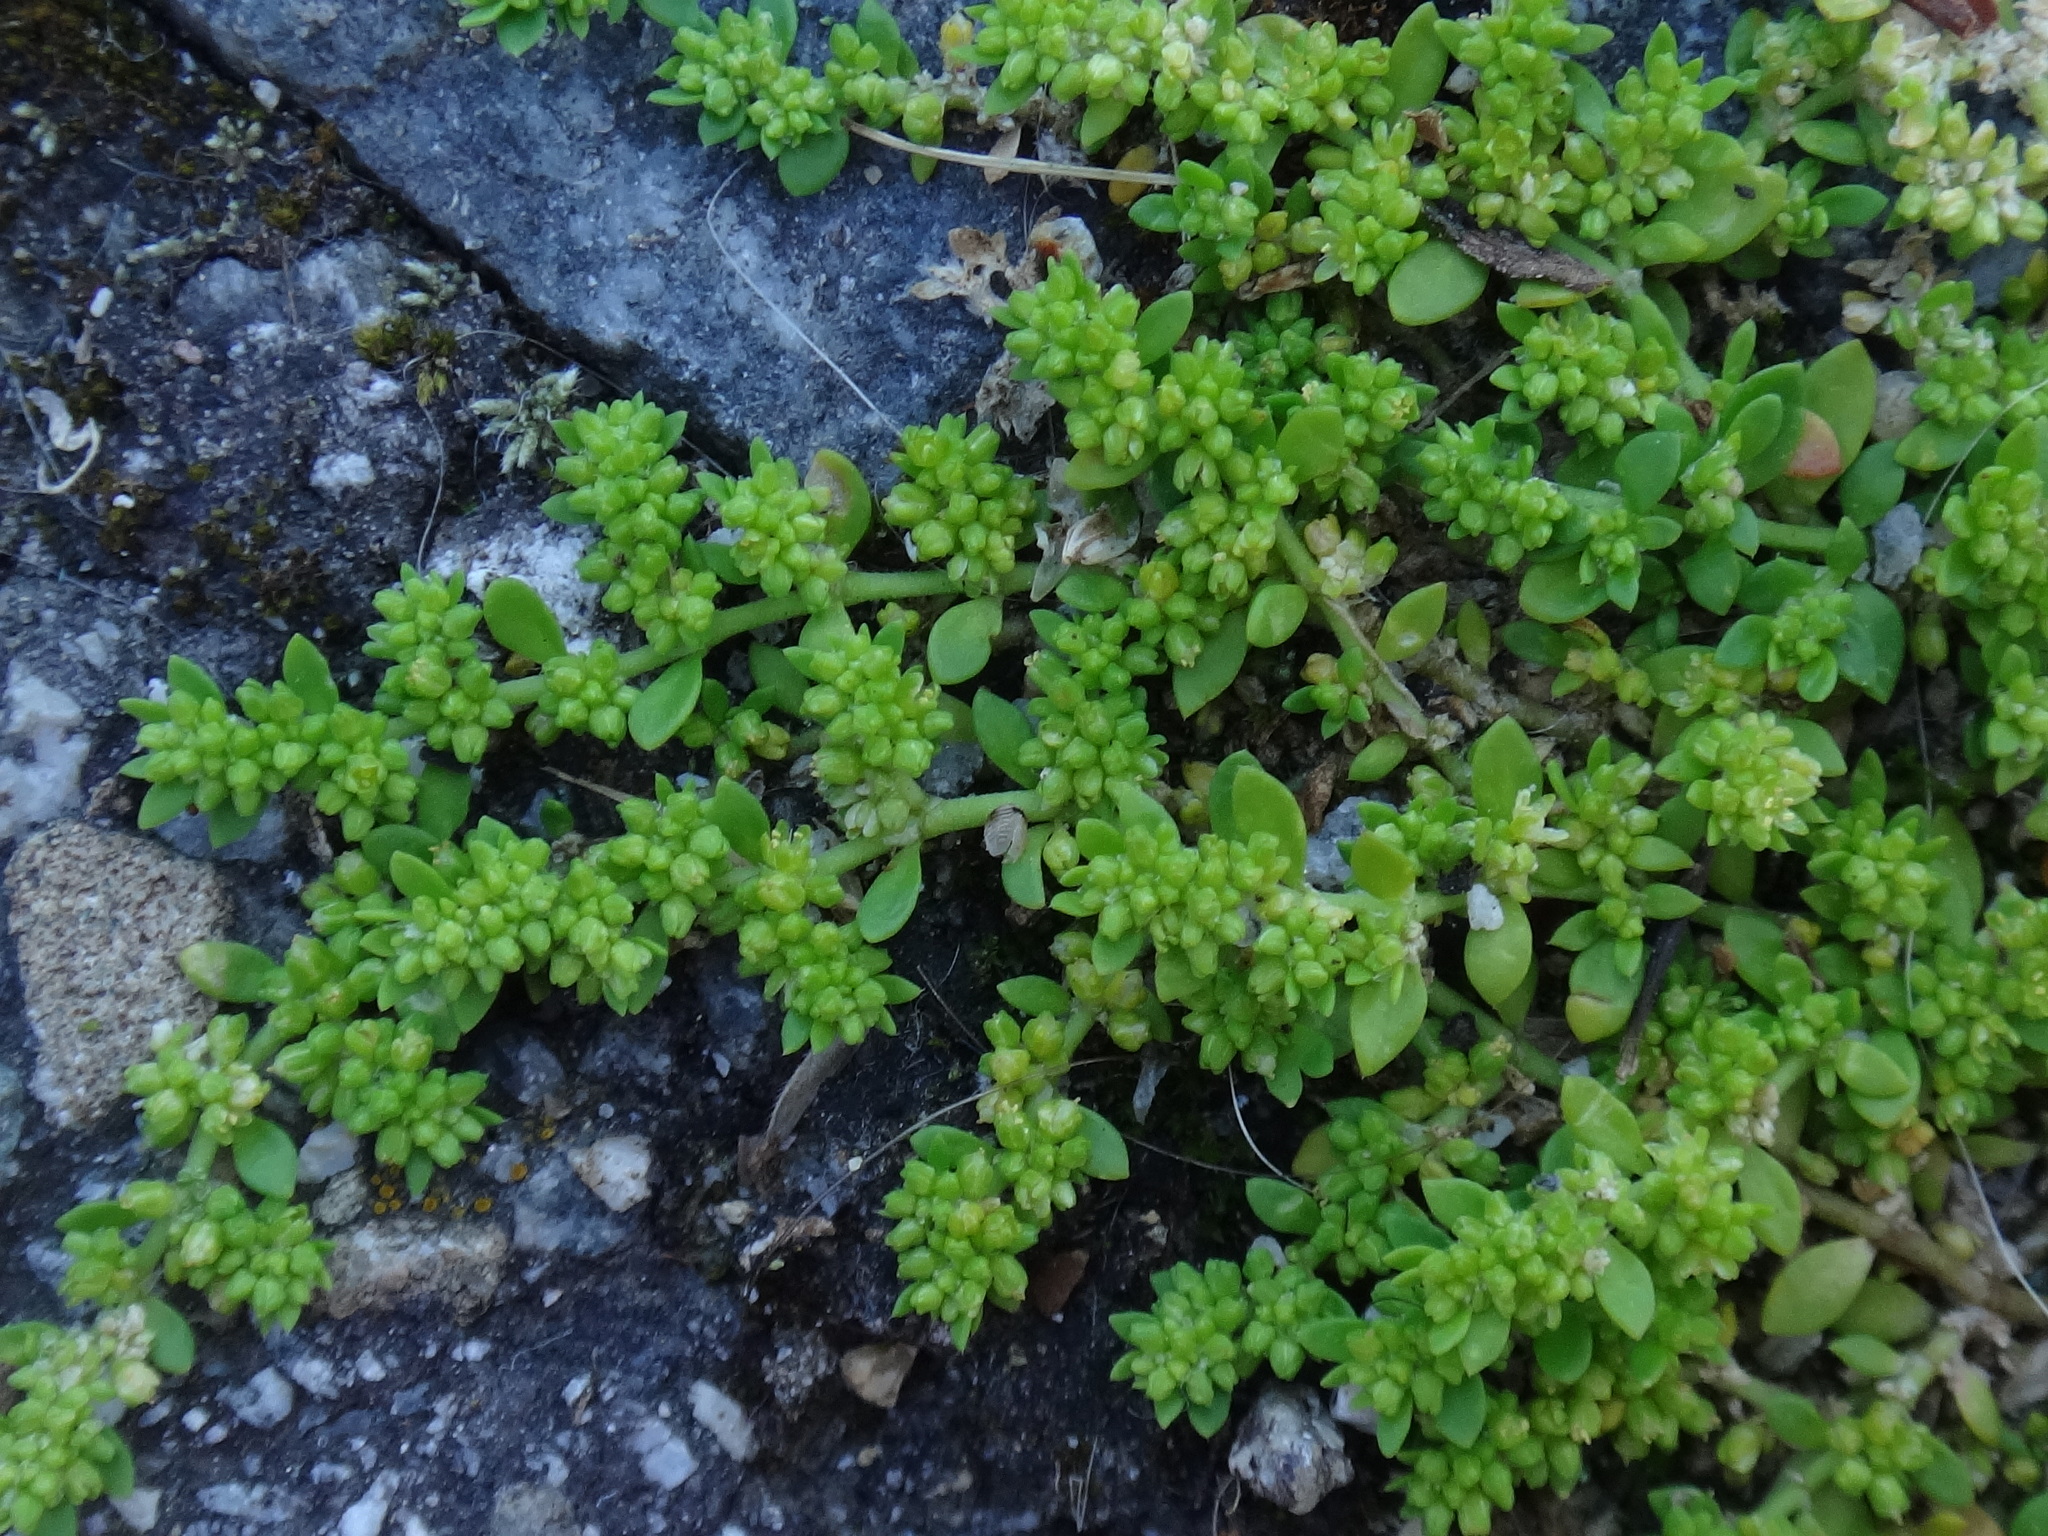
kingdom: Plantae
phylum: Tracheophyta
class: Magnoliopsida
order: Caryophyllales
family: Caryophyllaceae
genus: Herniaria
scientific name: Herniaria glabra
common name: Smooth rupturewort
